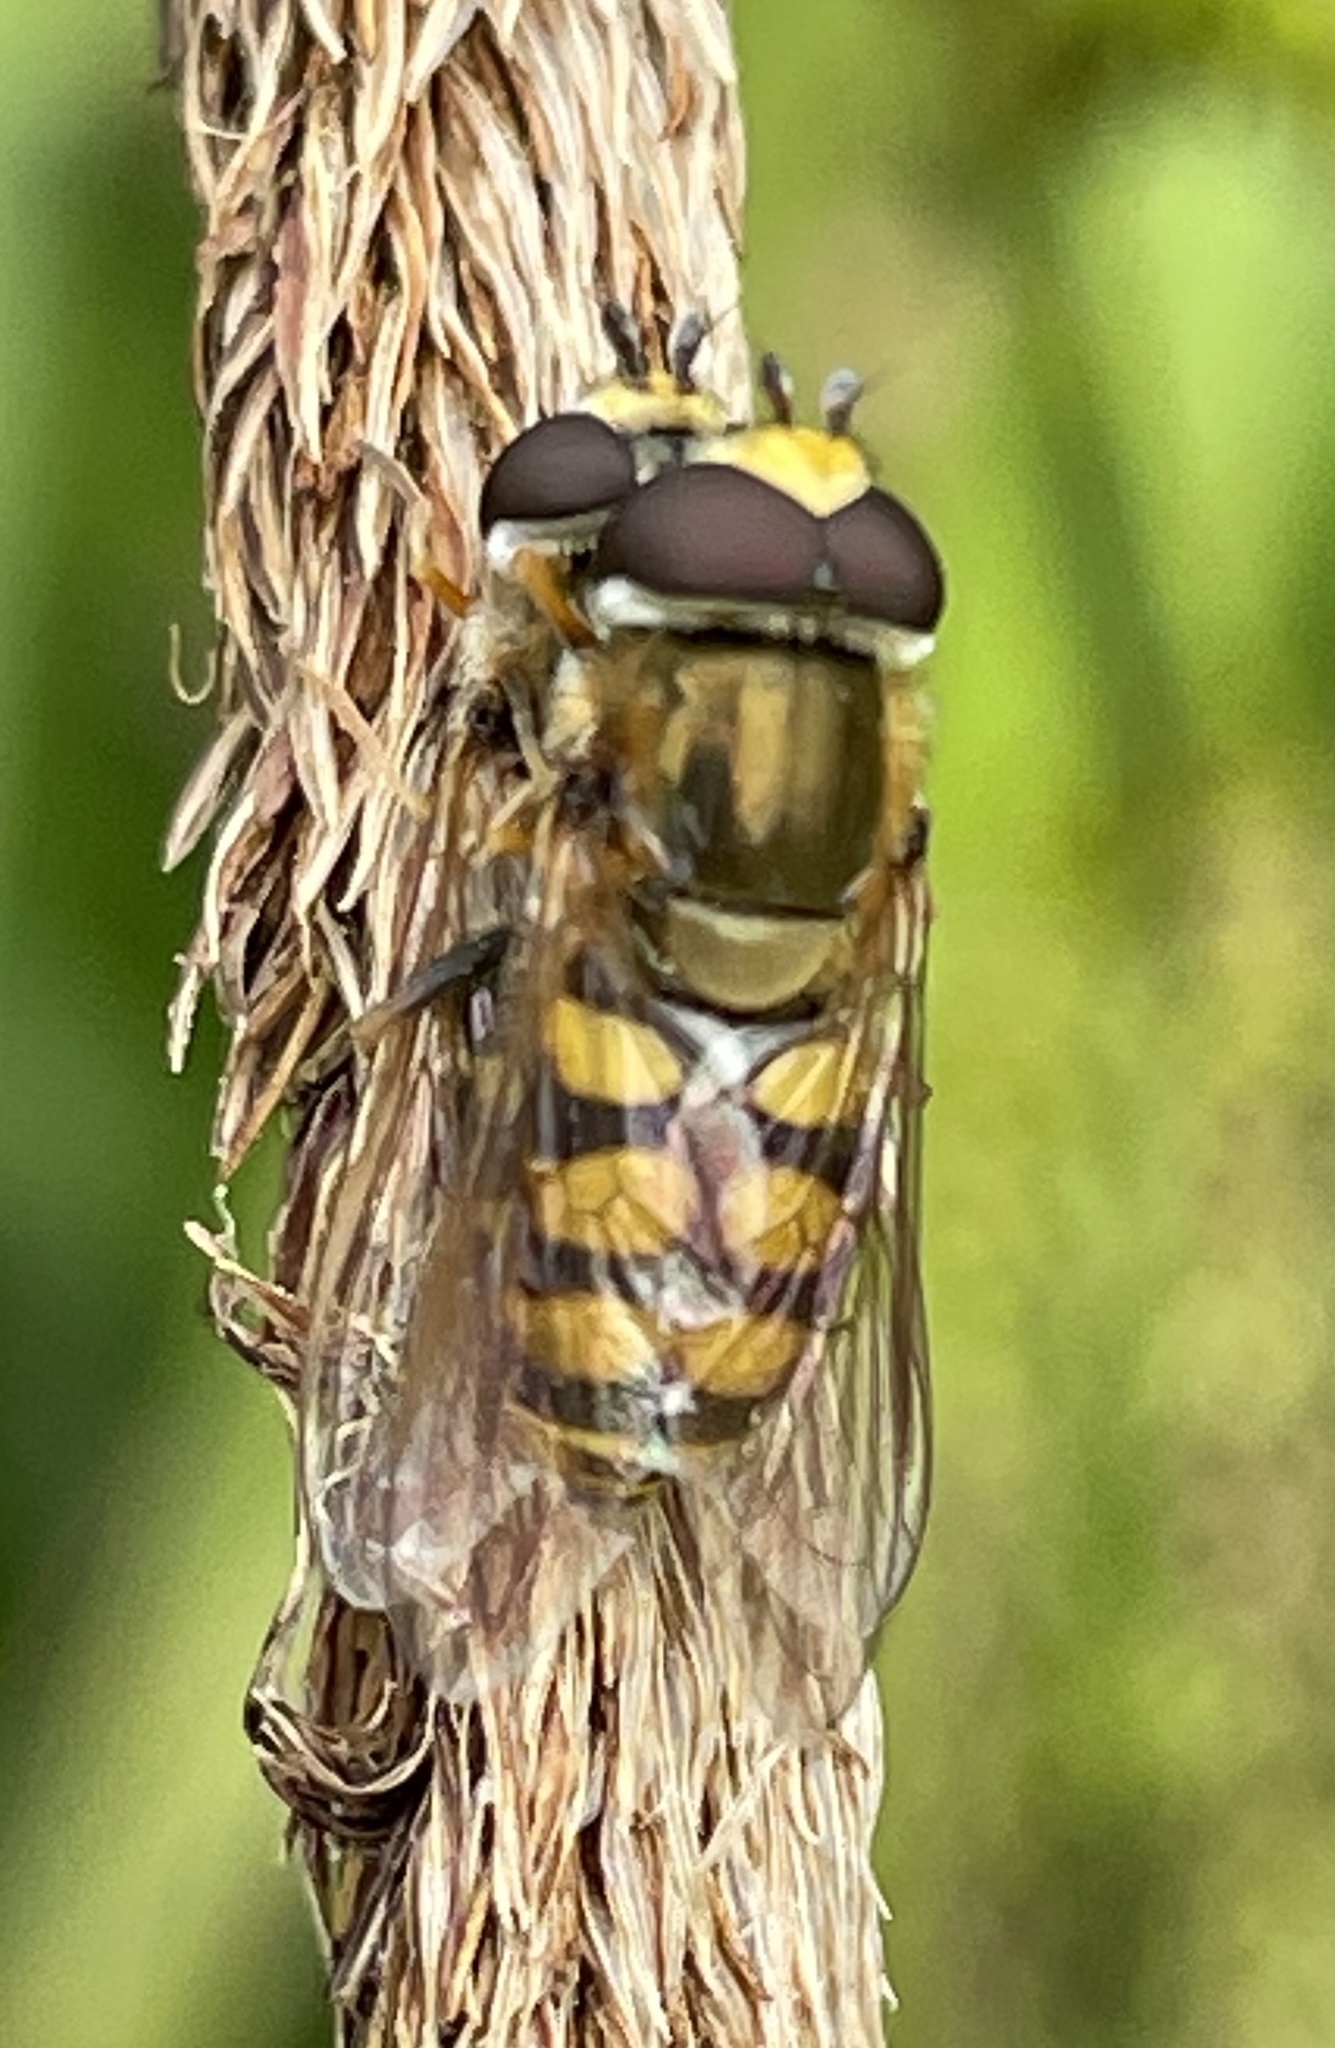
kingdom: Animalia
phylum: Arthropoda
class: Insecta
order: Diptera
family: Syrphidae
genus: Eupeodes
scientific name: Eupeodes corollae
